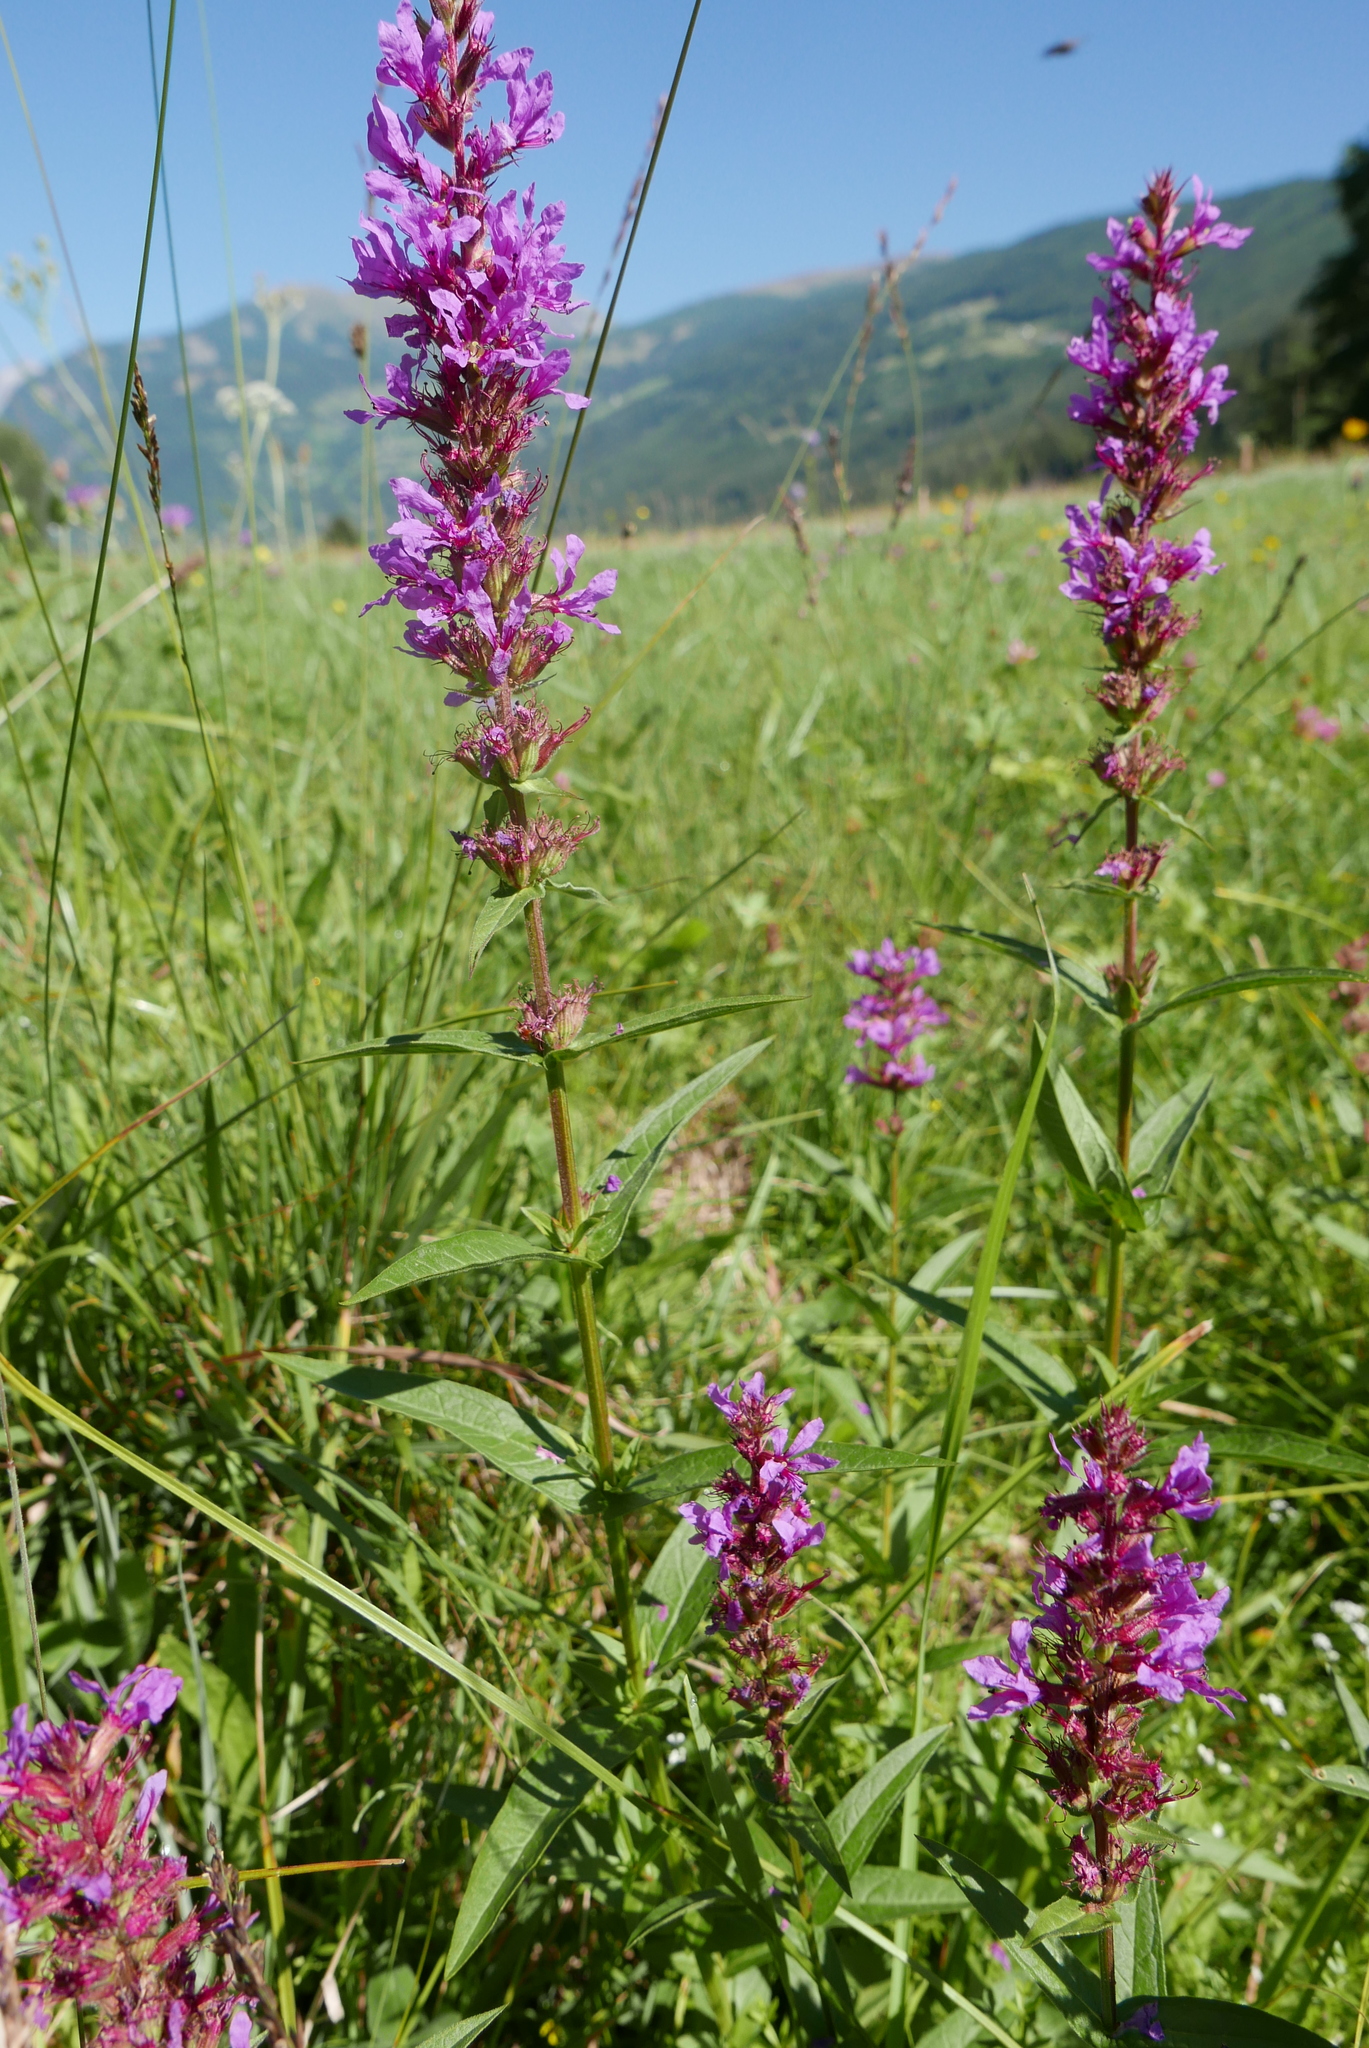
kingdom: Plantae
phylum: Tracheophyta
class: Magnoliopsida
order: Myrtales
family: Lythraceae
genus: Lythrum
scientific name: Lythrum salicaria
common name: Purple loosestrife
